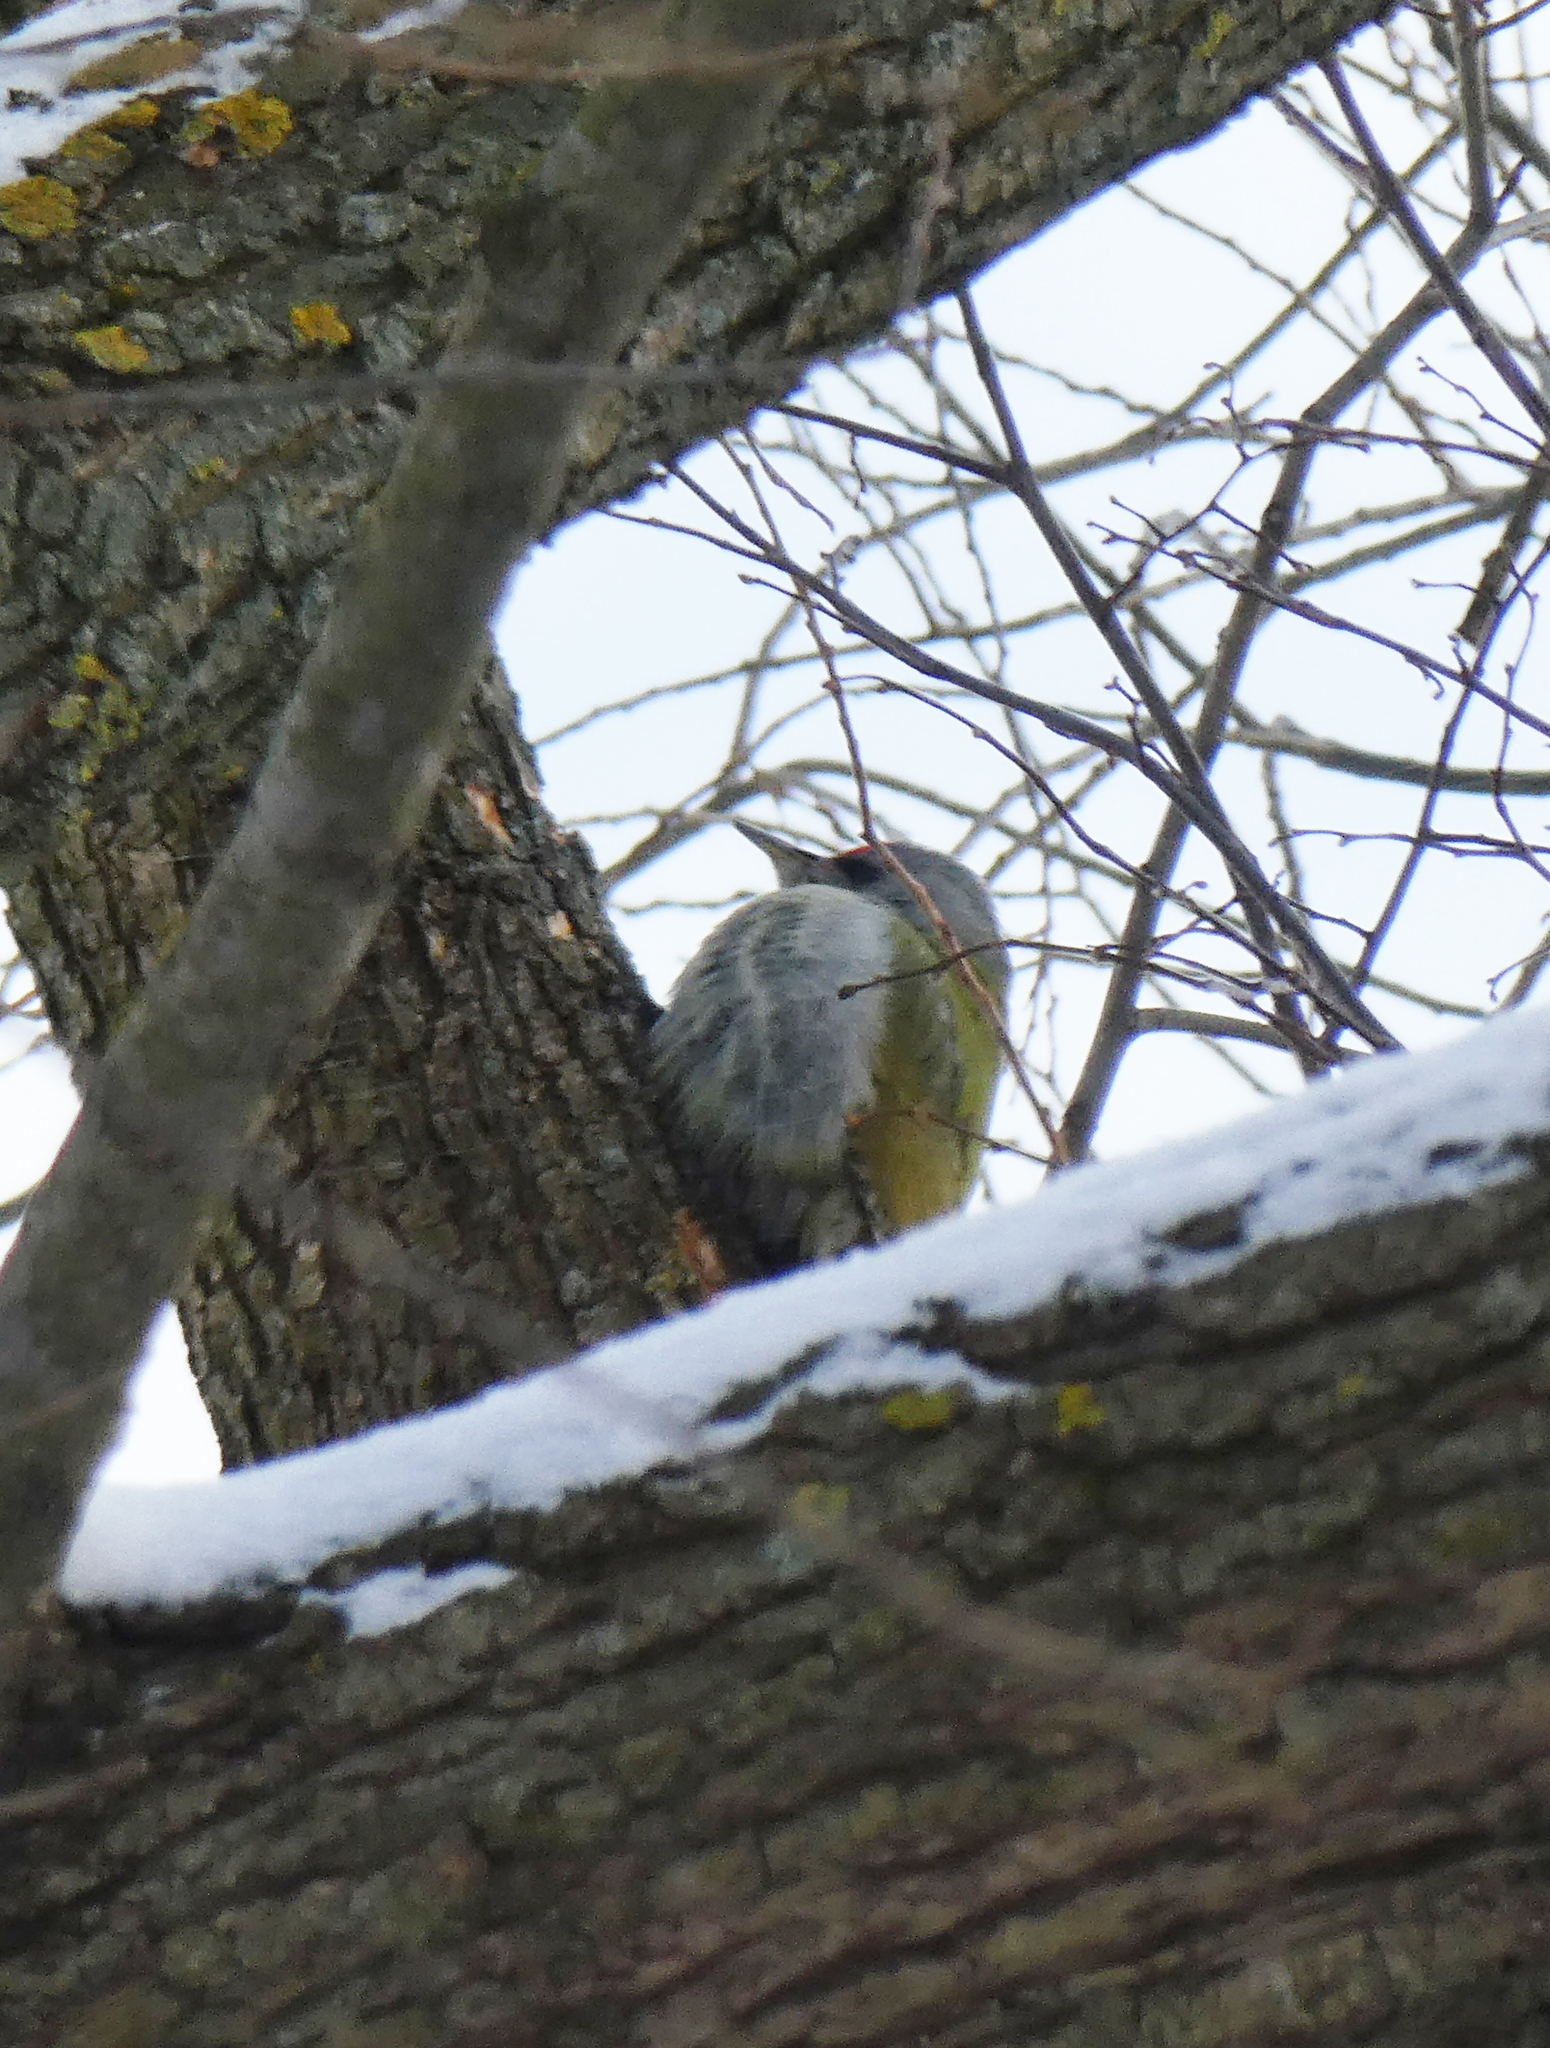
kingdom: Animalia
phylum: Chordata
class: Aves
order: Piciformes
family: Picidae
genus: Picus
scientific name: Picus canus
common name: Grey-headed woodpecker
